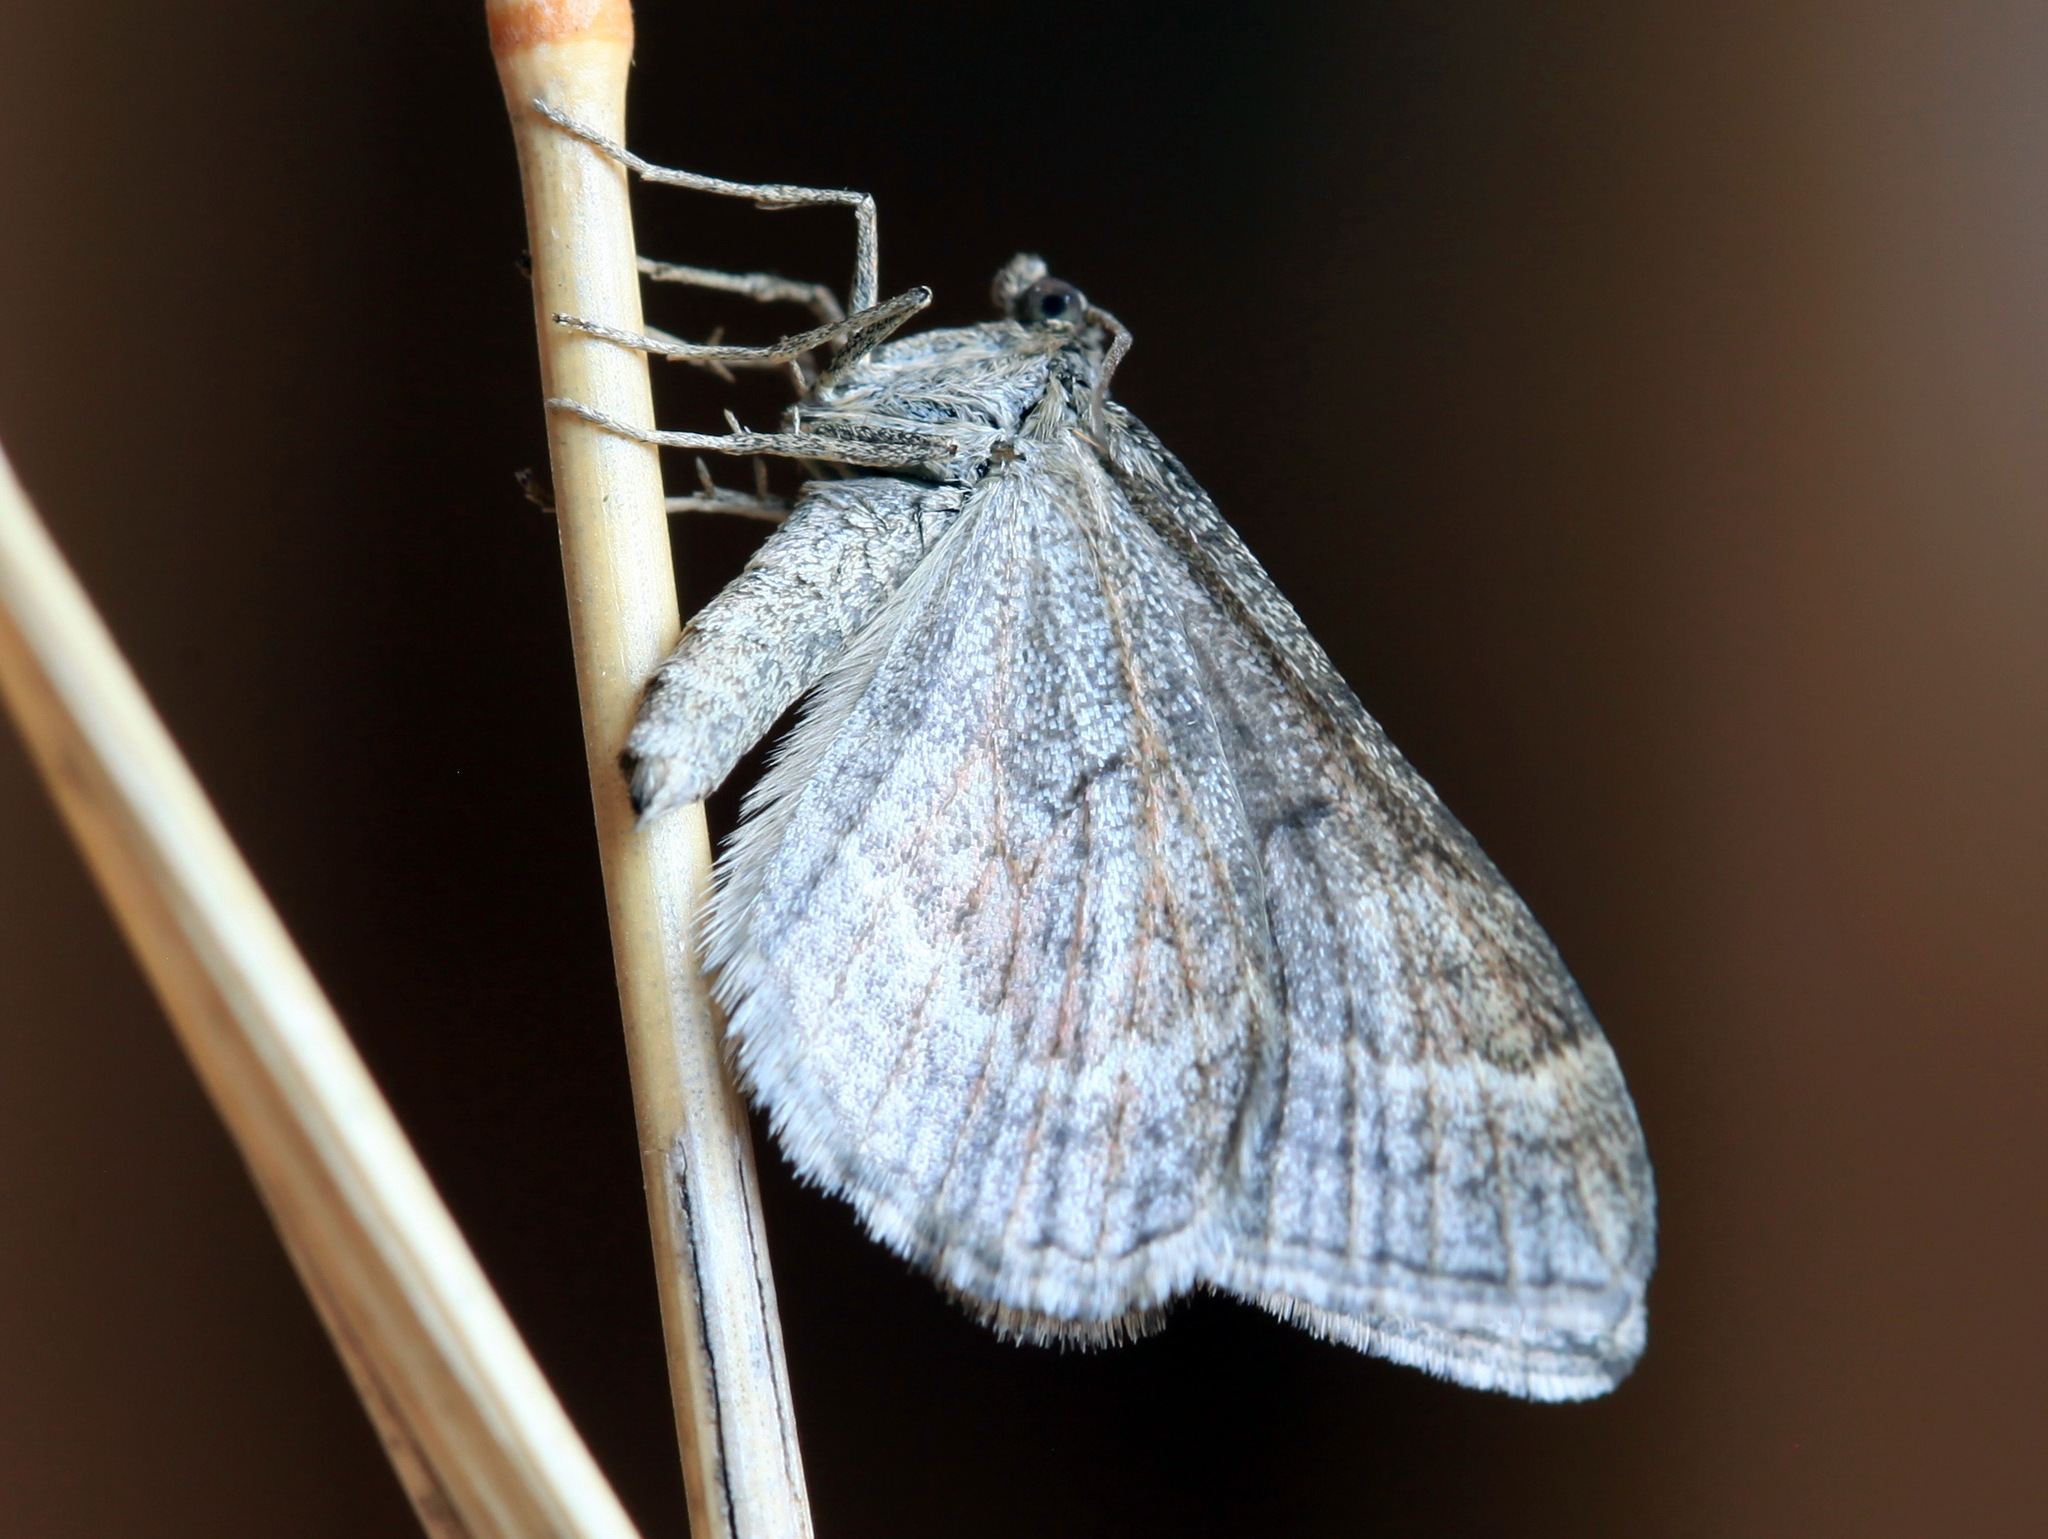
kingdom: Animalia
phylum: Arthropoda
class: Insecta
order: Lepidoptera
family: Geometridae
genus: Phibalapteryx
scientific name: Phibalapteryx virgata
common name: Oblique striped
